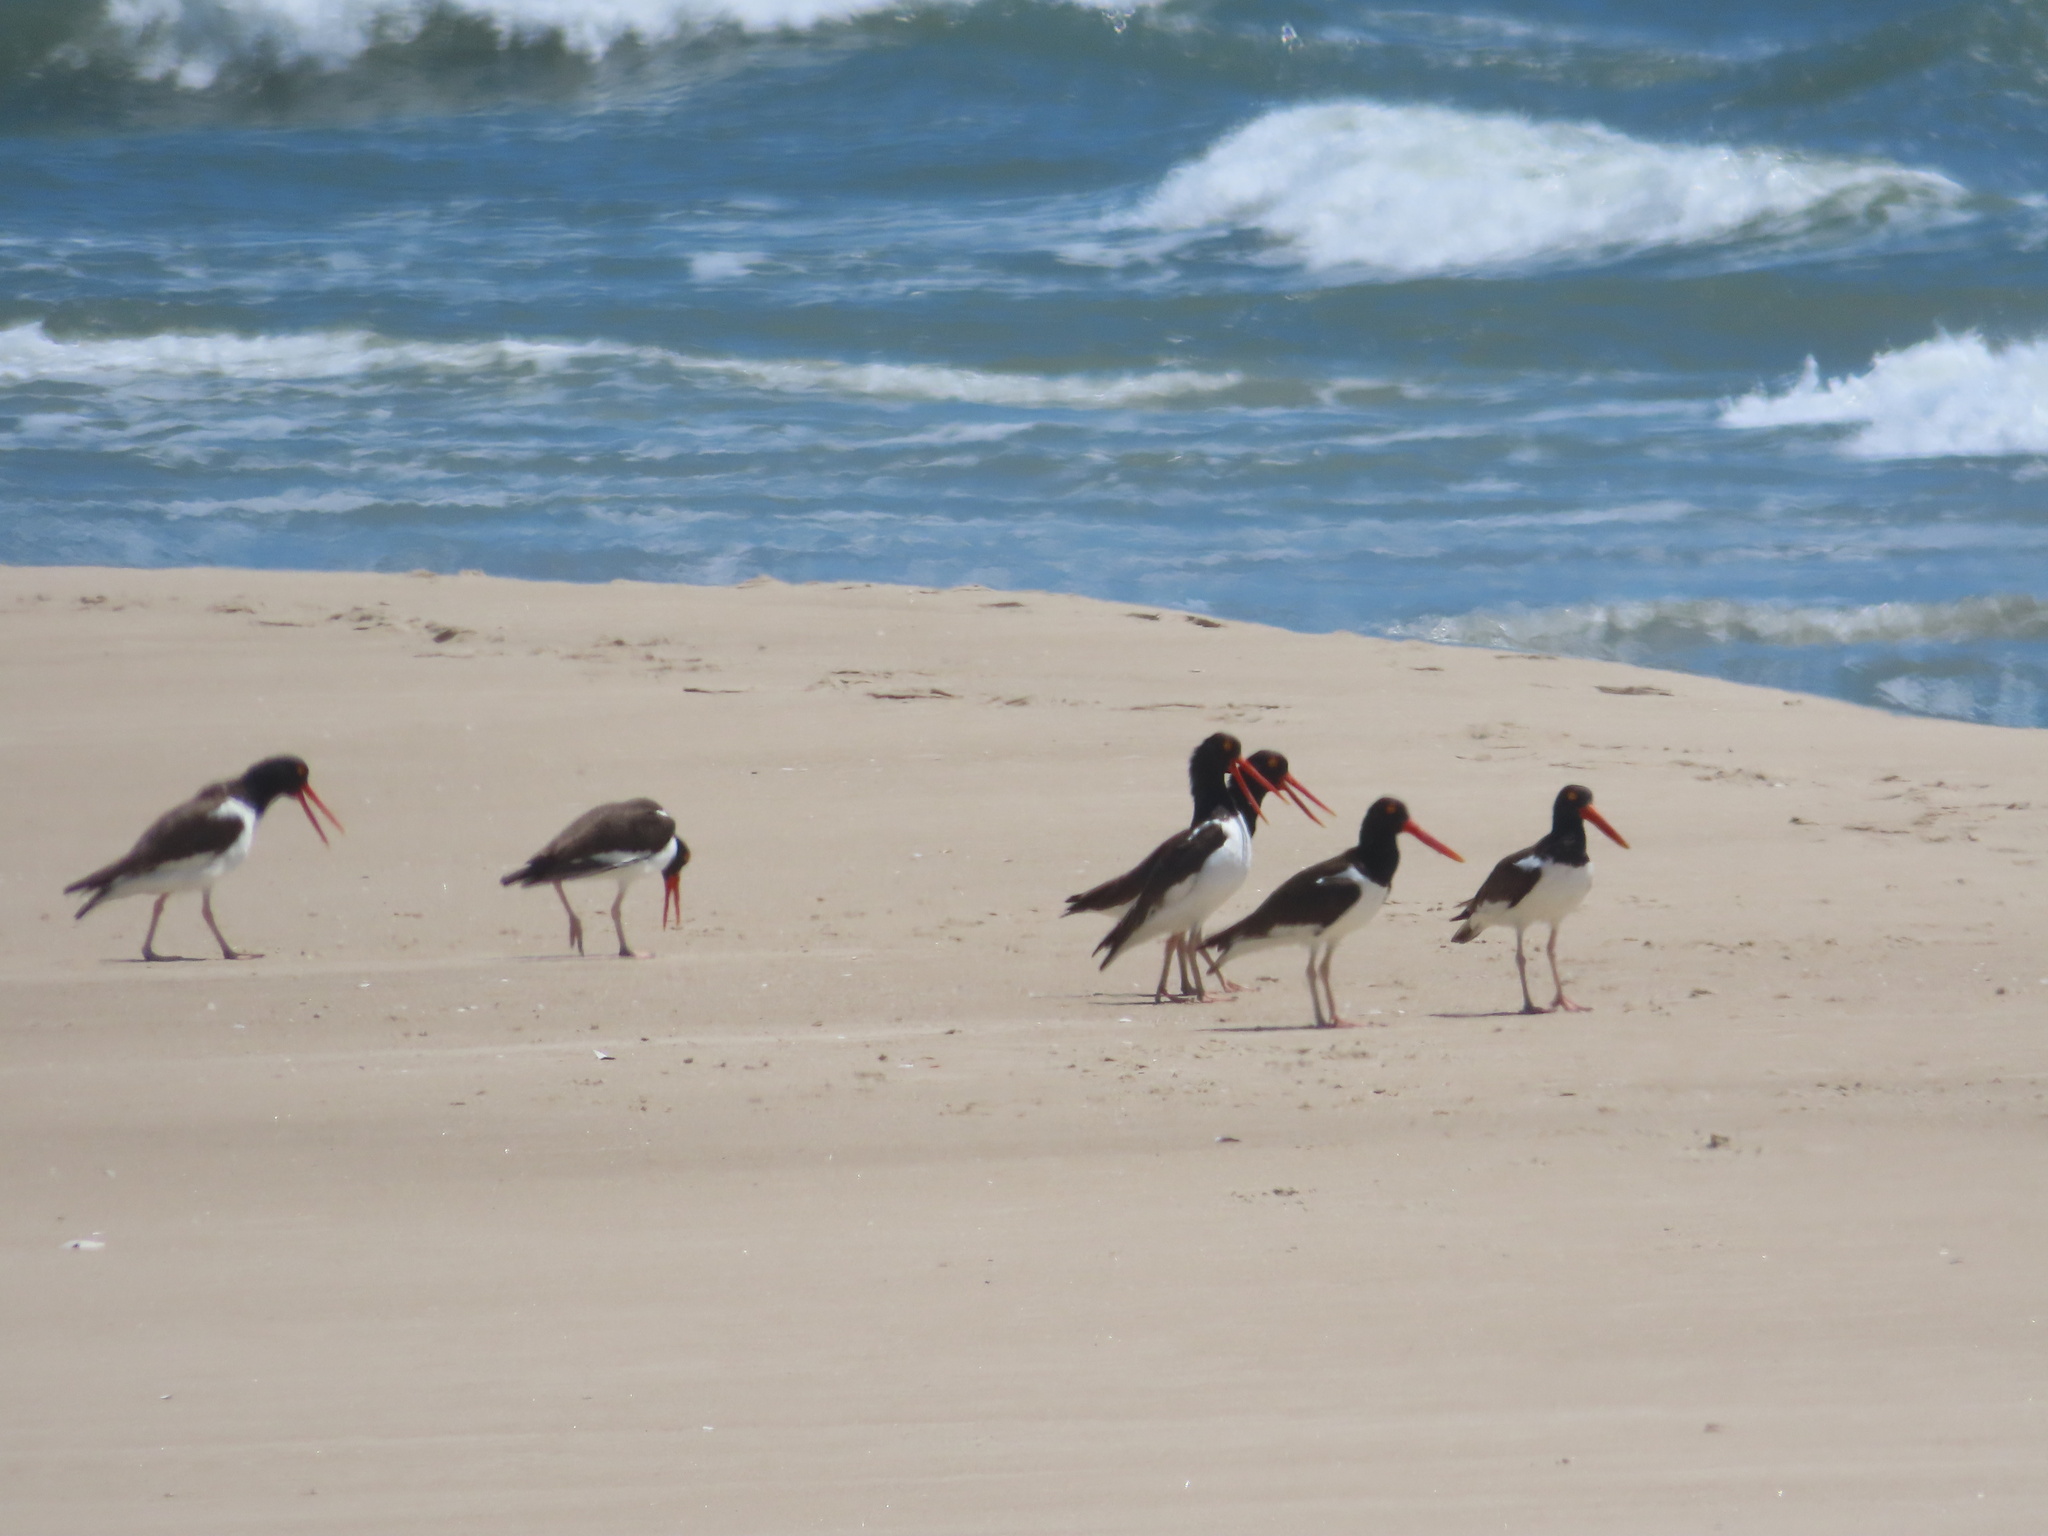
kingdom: Animalia
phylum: Chordata
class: Aves
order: Charadriiformes
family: Haematopodidae
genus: Haematopus
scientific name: Haematopus palliatus
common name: American oystercatcher
